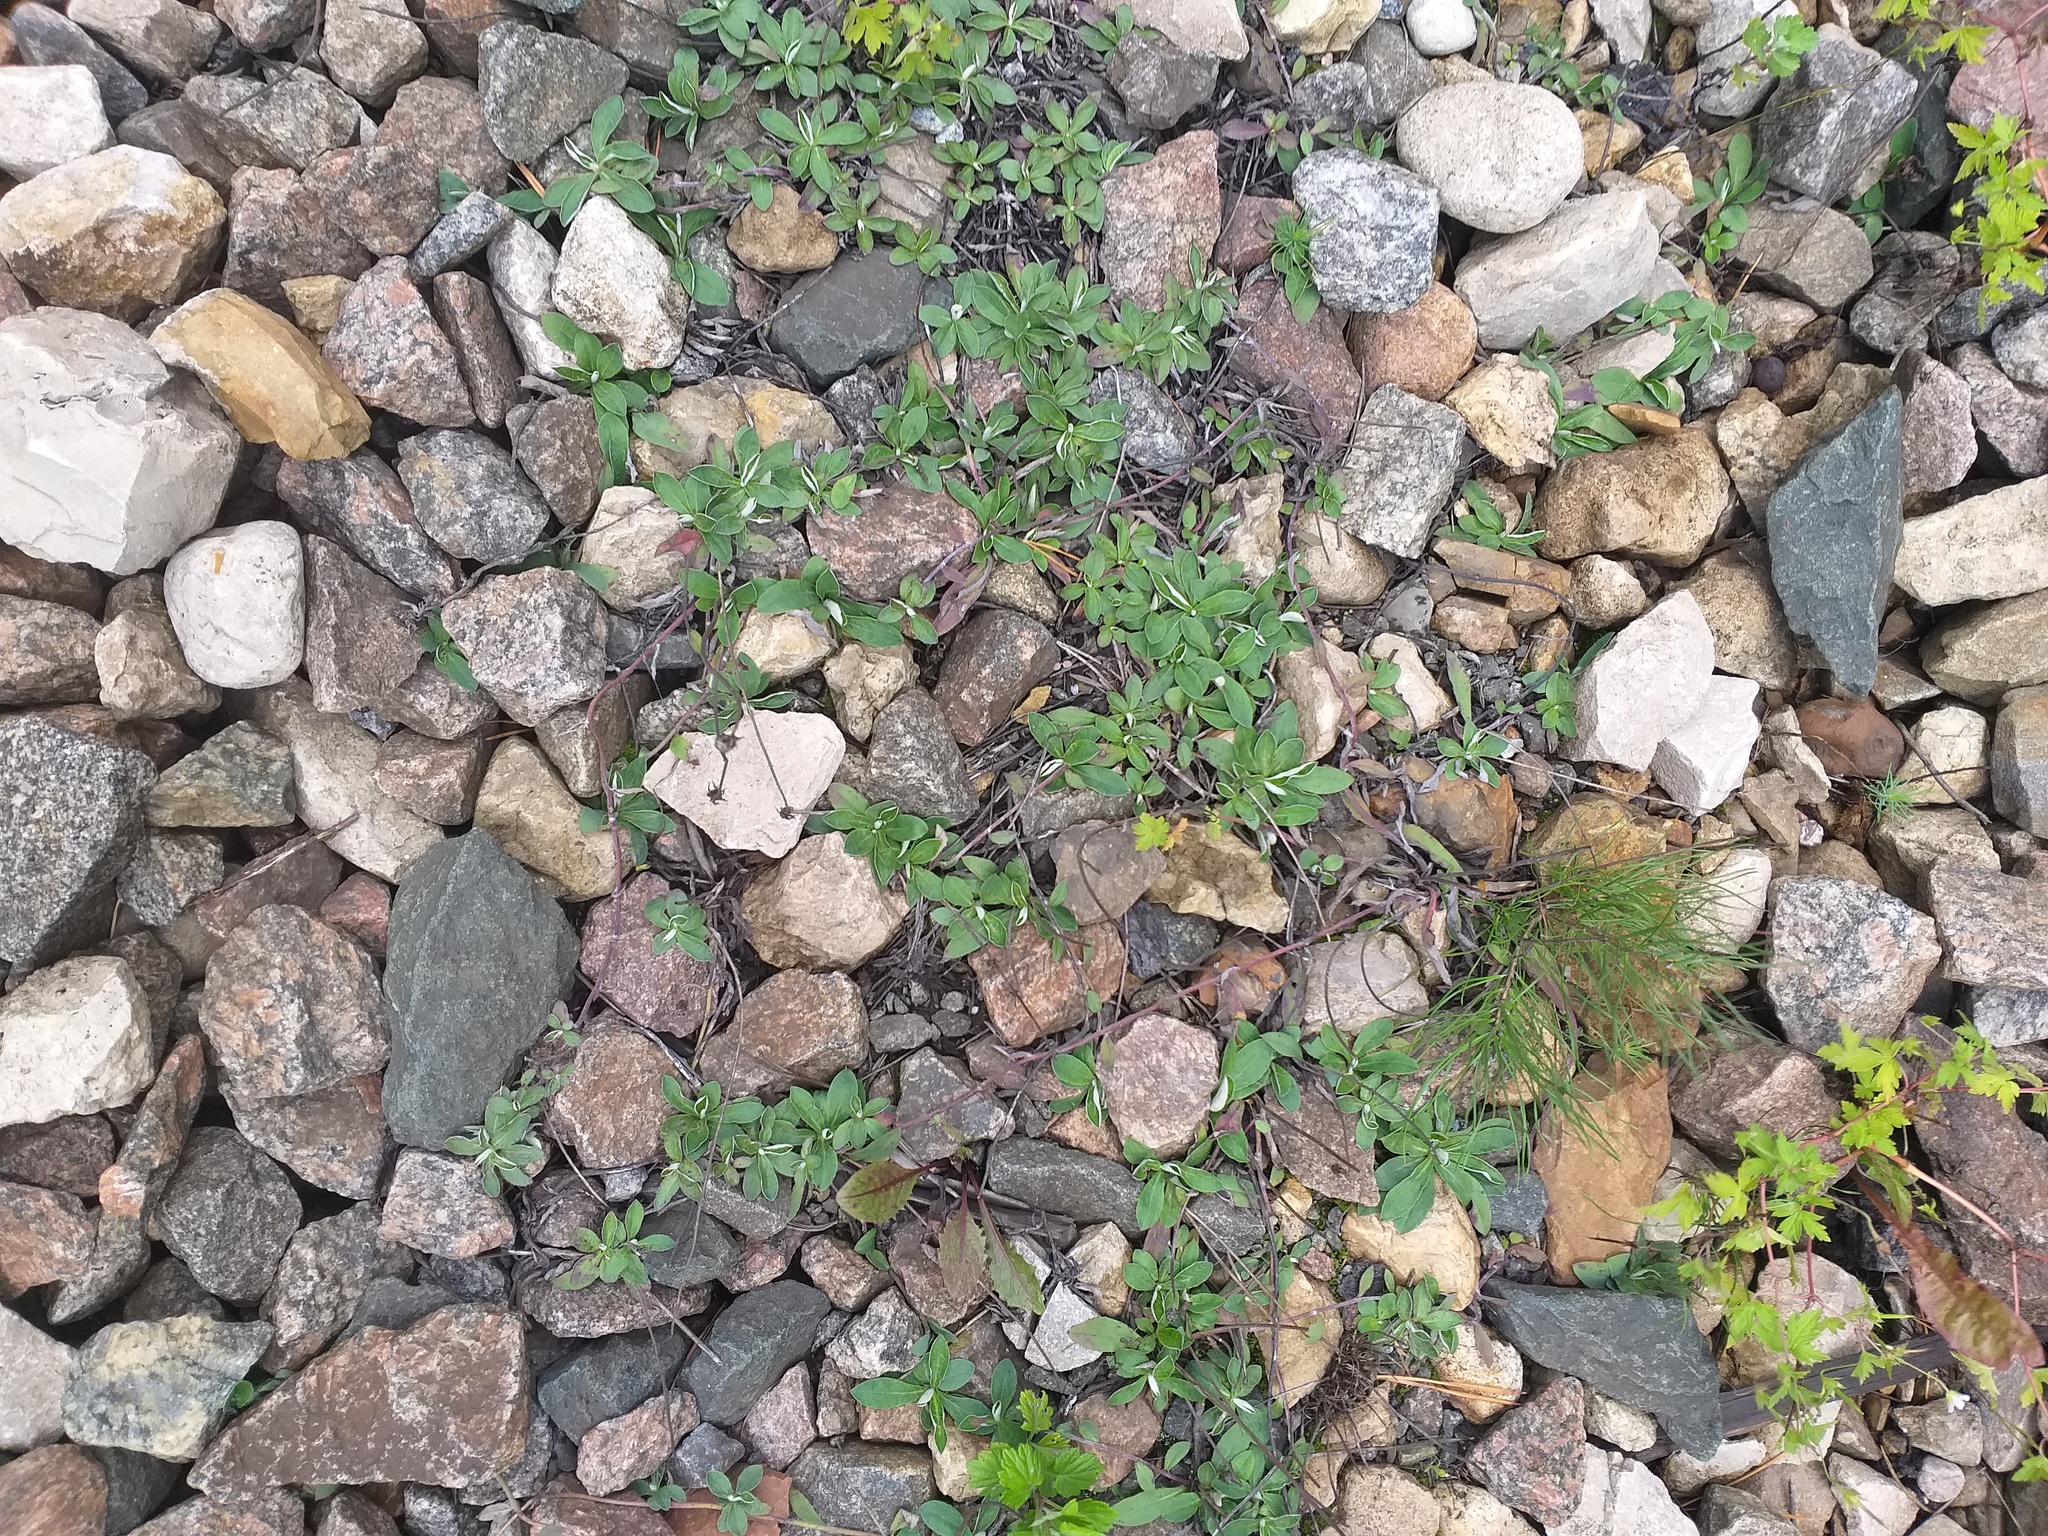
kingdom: Plantae
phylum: Tracheophyta
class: Magnoliopsida
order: Asterales
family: Asteraceae
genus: Pilosella
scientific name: Pilosella officinarum
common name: Mouse-ear hawkweed
